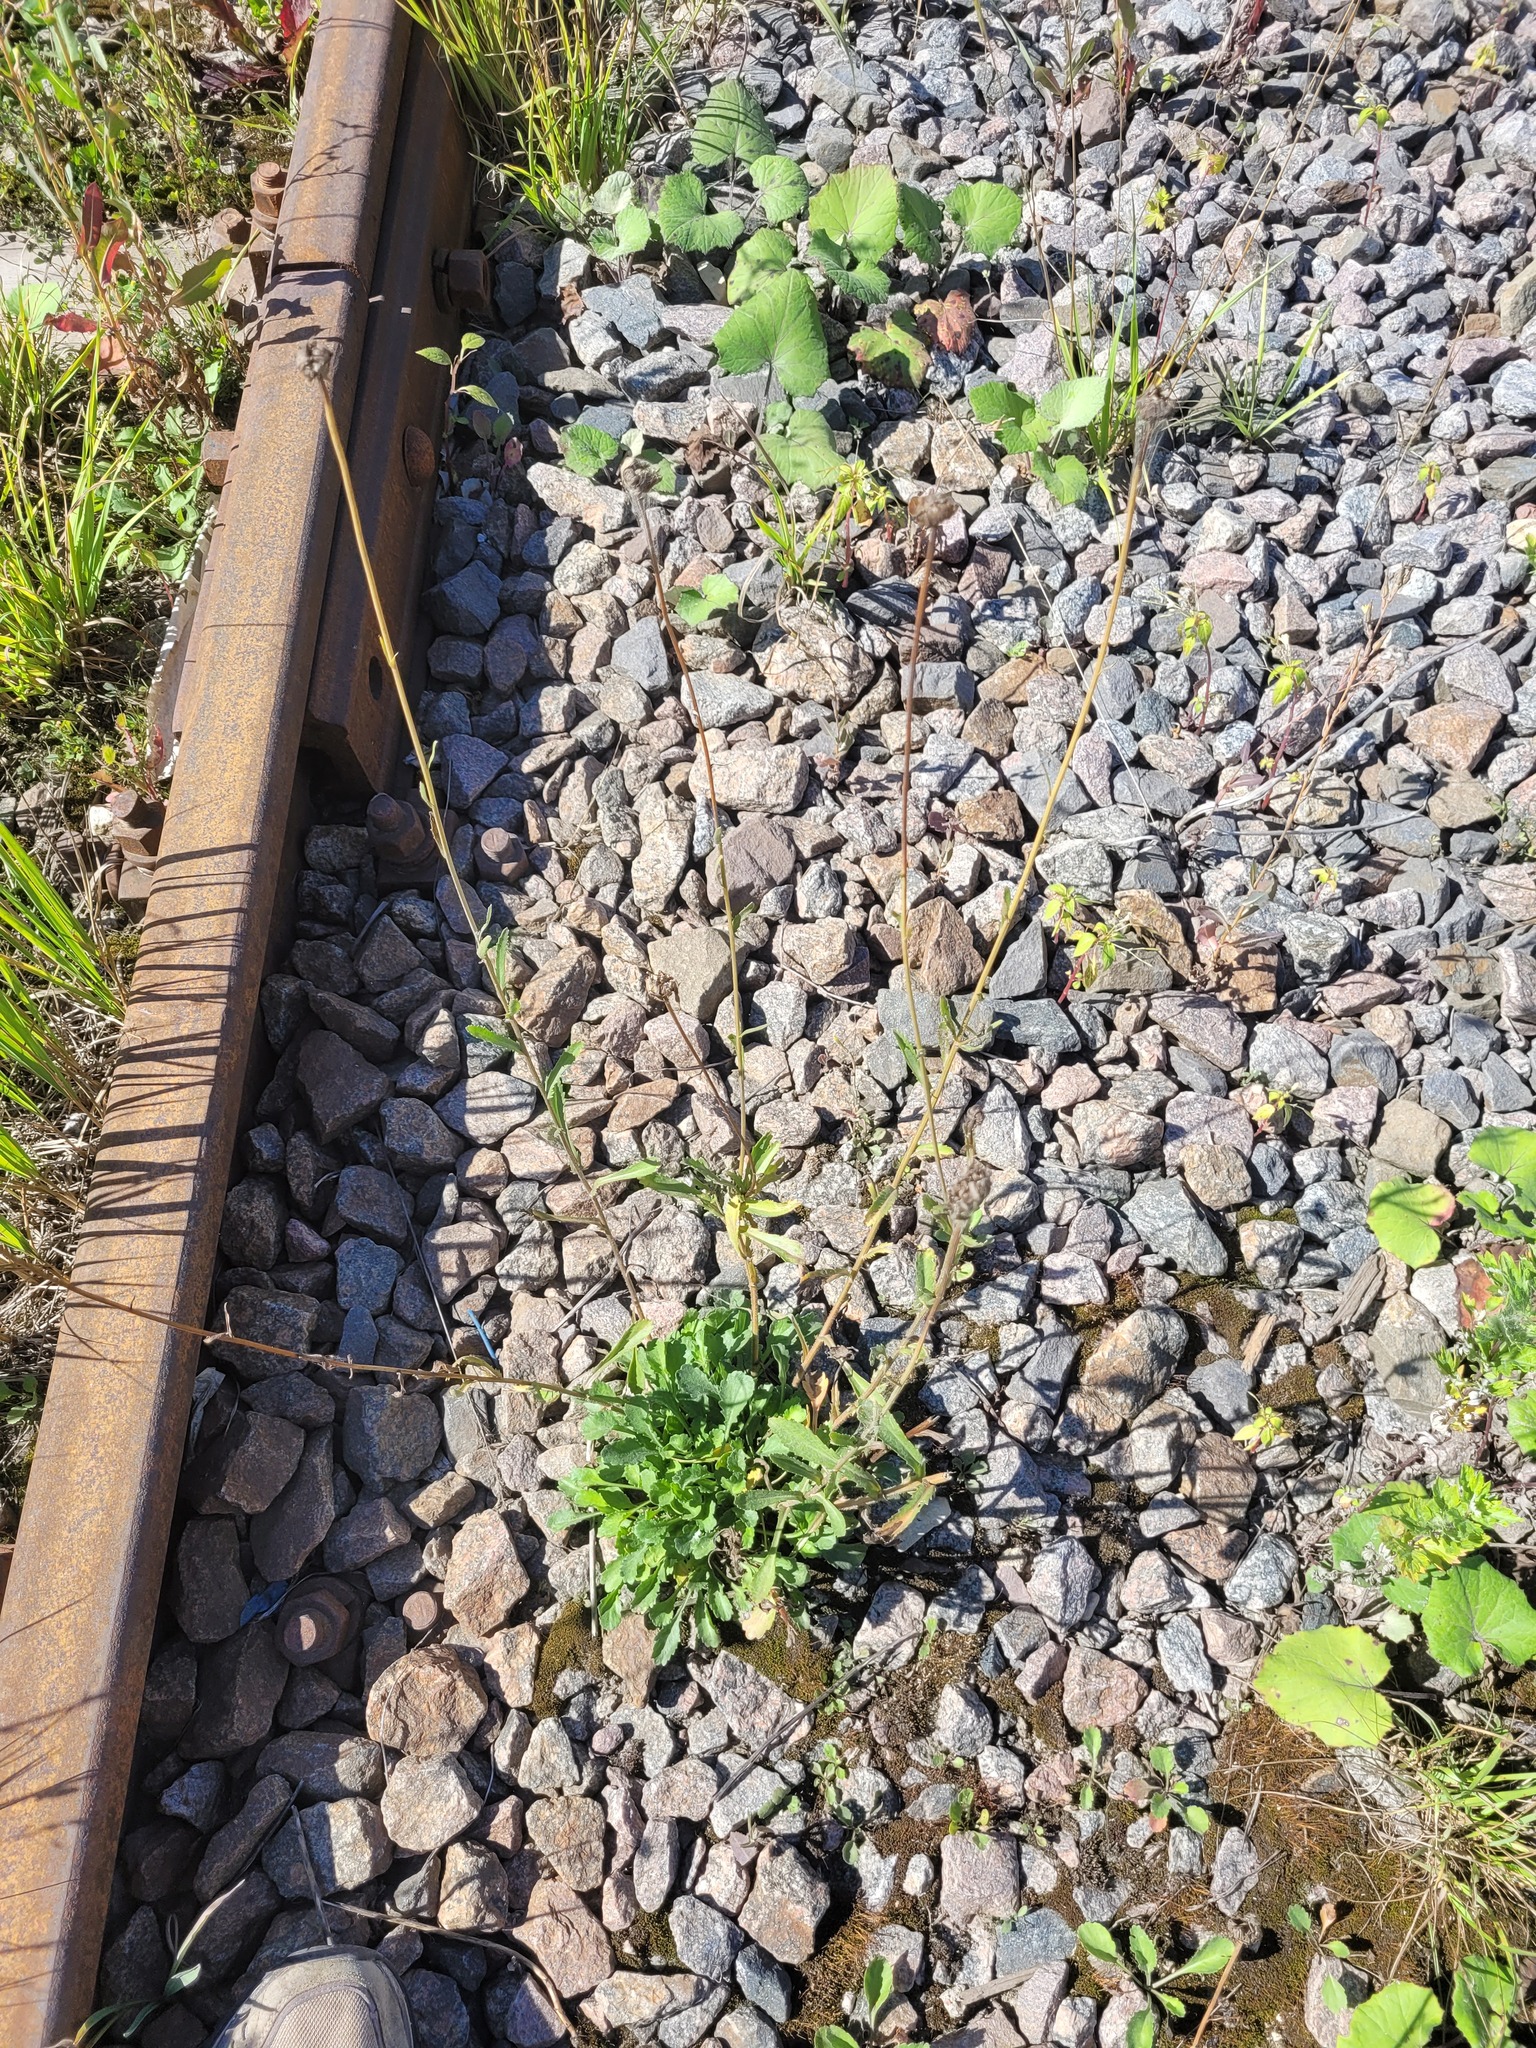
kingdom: Plantae
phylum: Tracheophyta
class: Magnoliopsida
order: Asterales
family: Asteraceae
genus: Leucanthemum
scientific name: Leucanthemum vulgare
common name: Oxeye daisy
